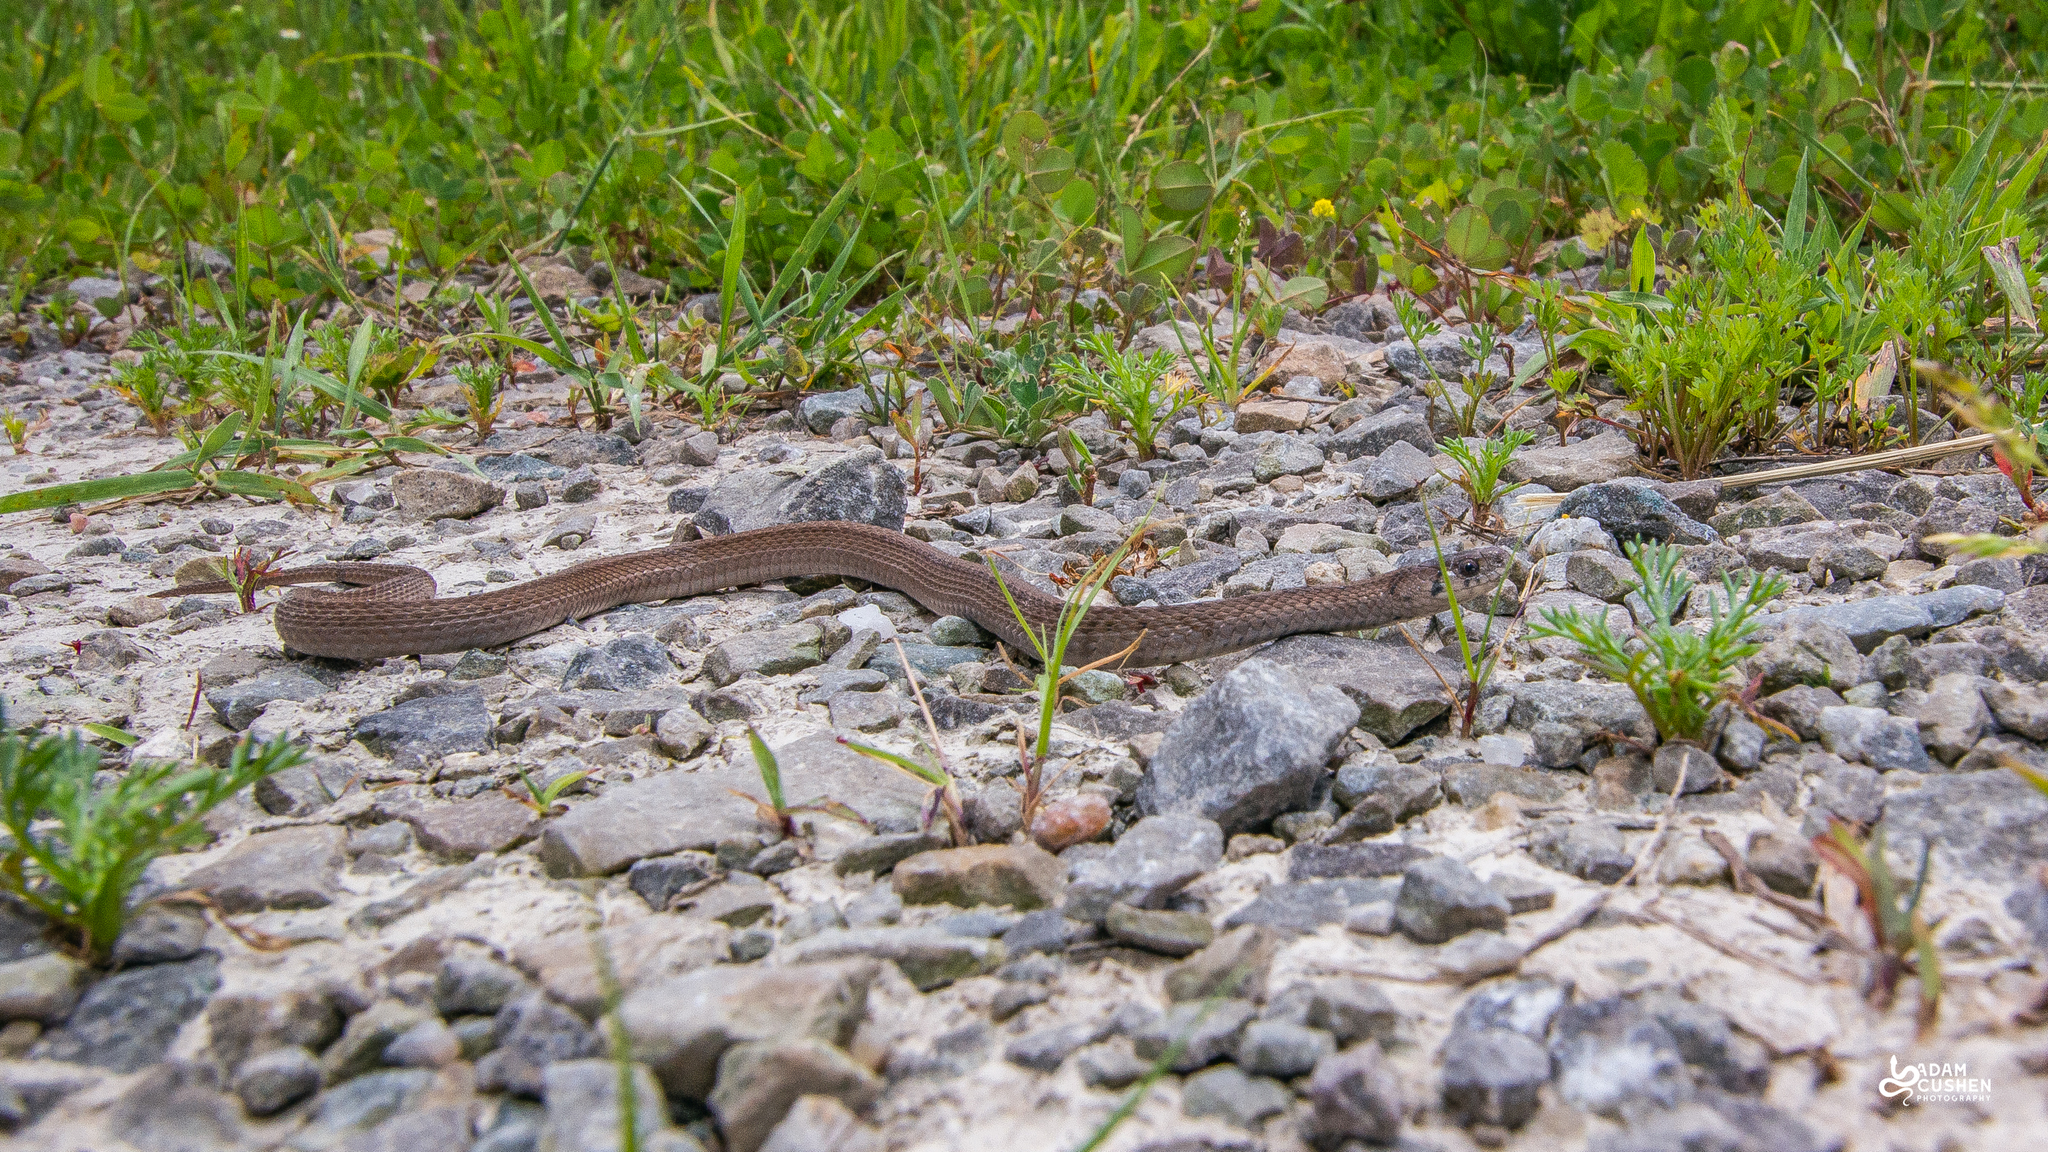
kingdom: Animalia
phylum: Chordata
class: Squamata
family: Colubridae
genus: Storeria
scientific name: Storeria dekayi
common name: (dekay’s) brown snake
